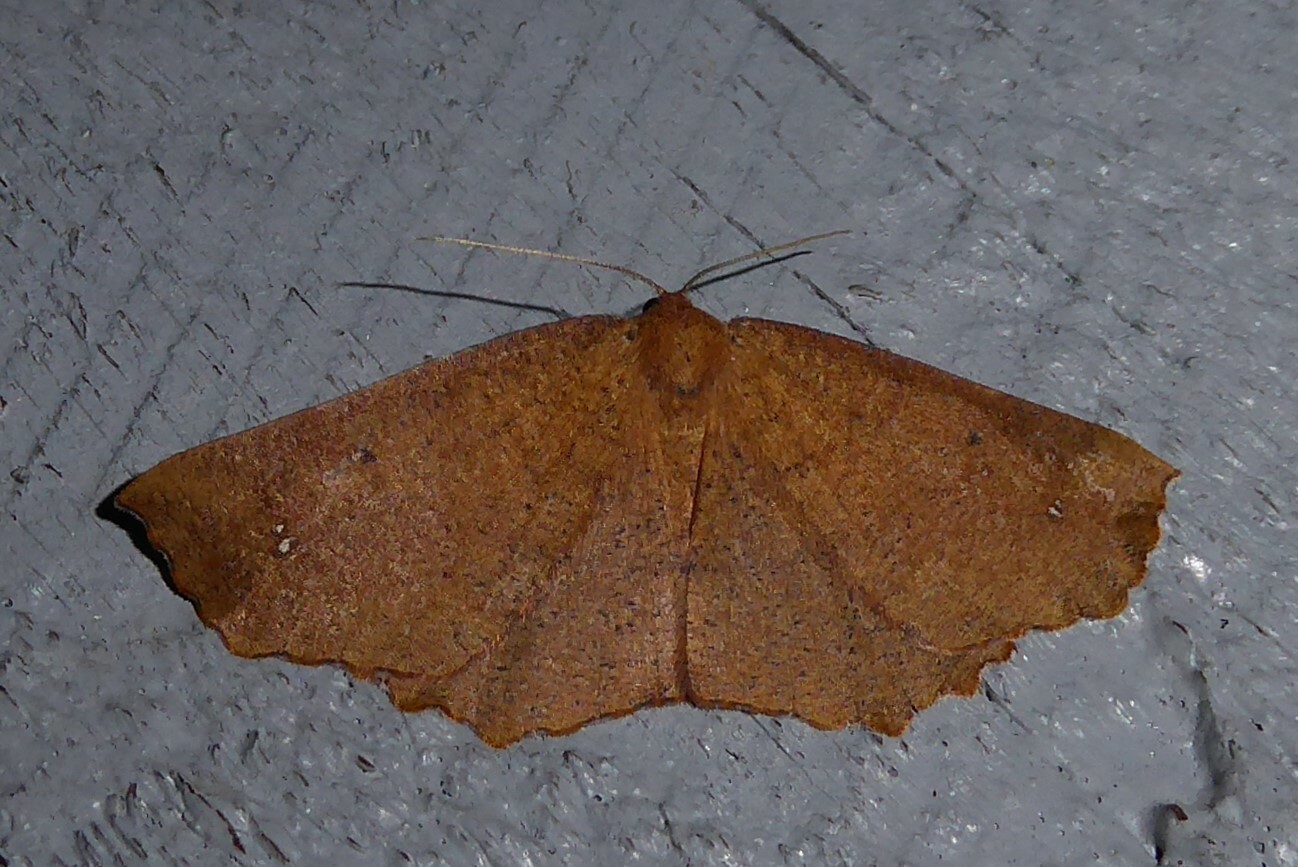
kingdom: Animalia
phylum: Arthropoda
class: Insecta
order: Lepidoptera
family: Geometridae
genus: Xyridacma
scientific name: Xyridacma ustaria
